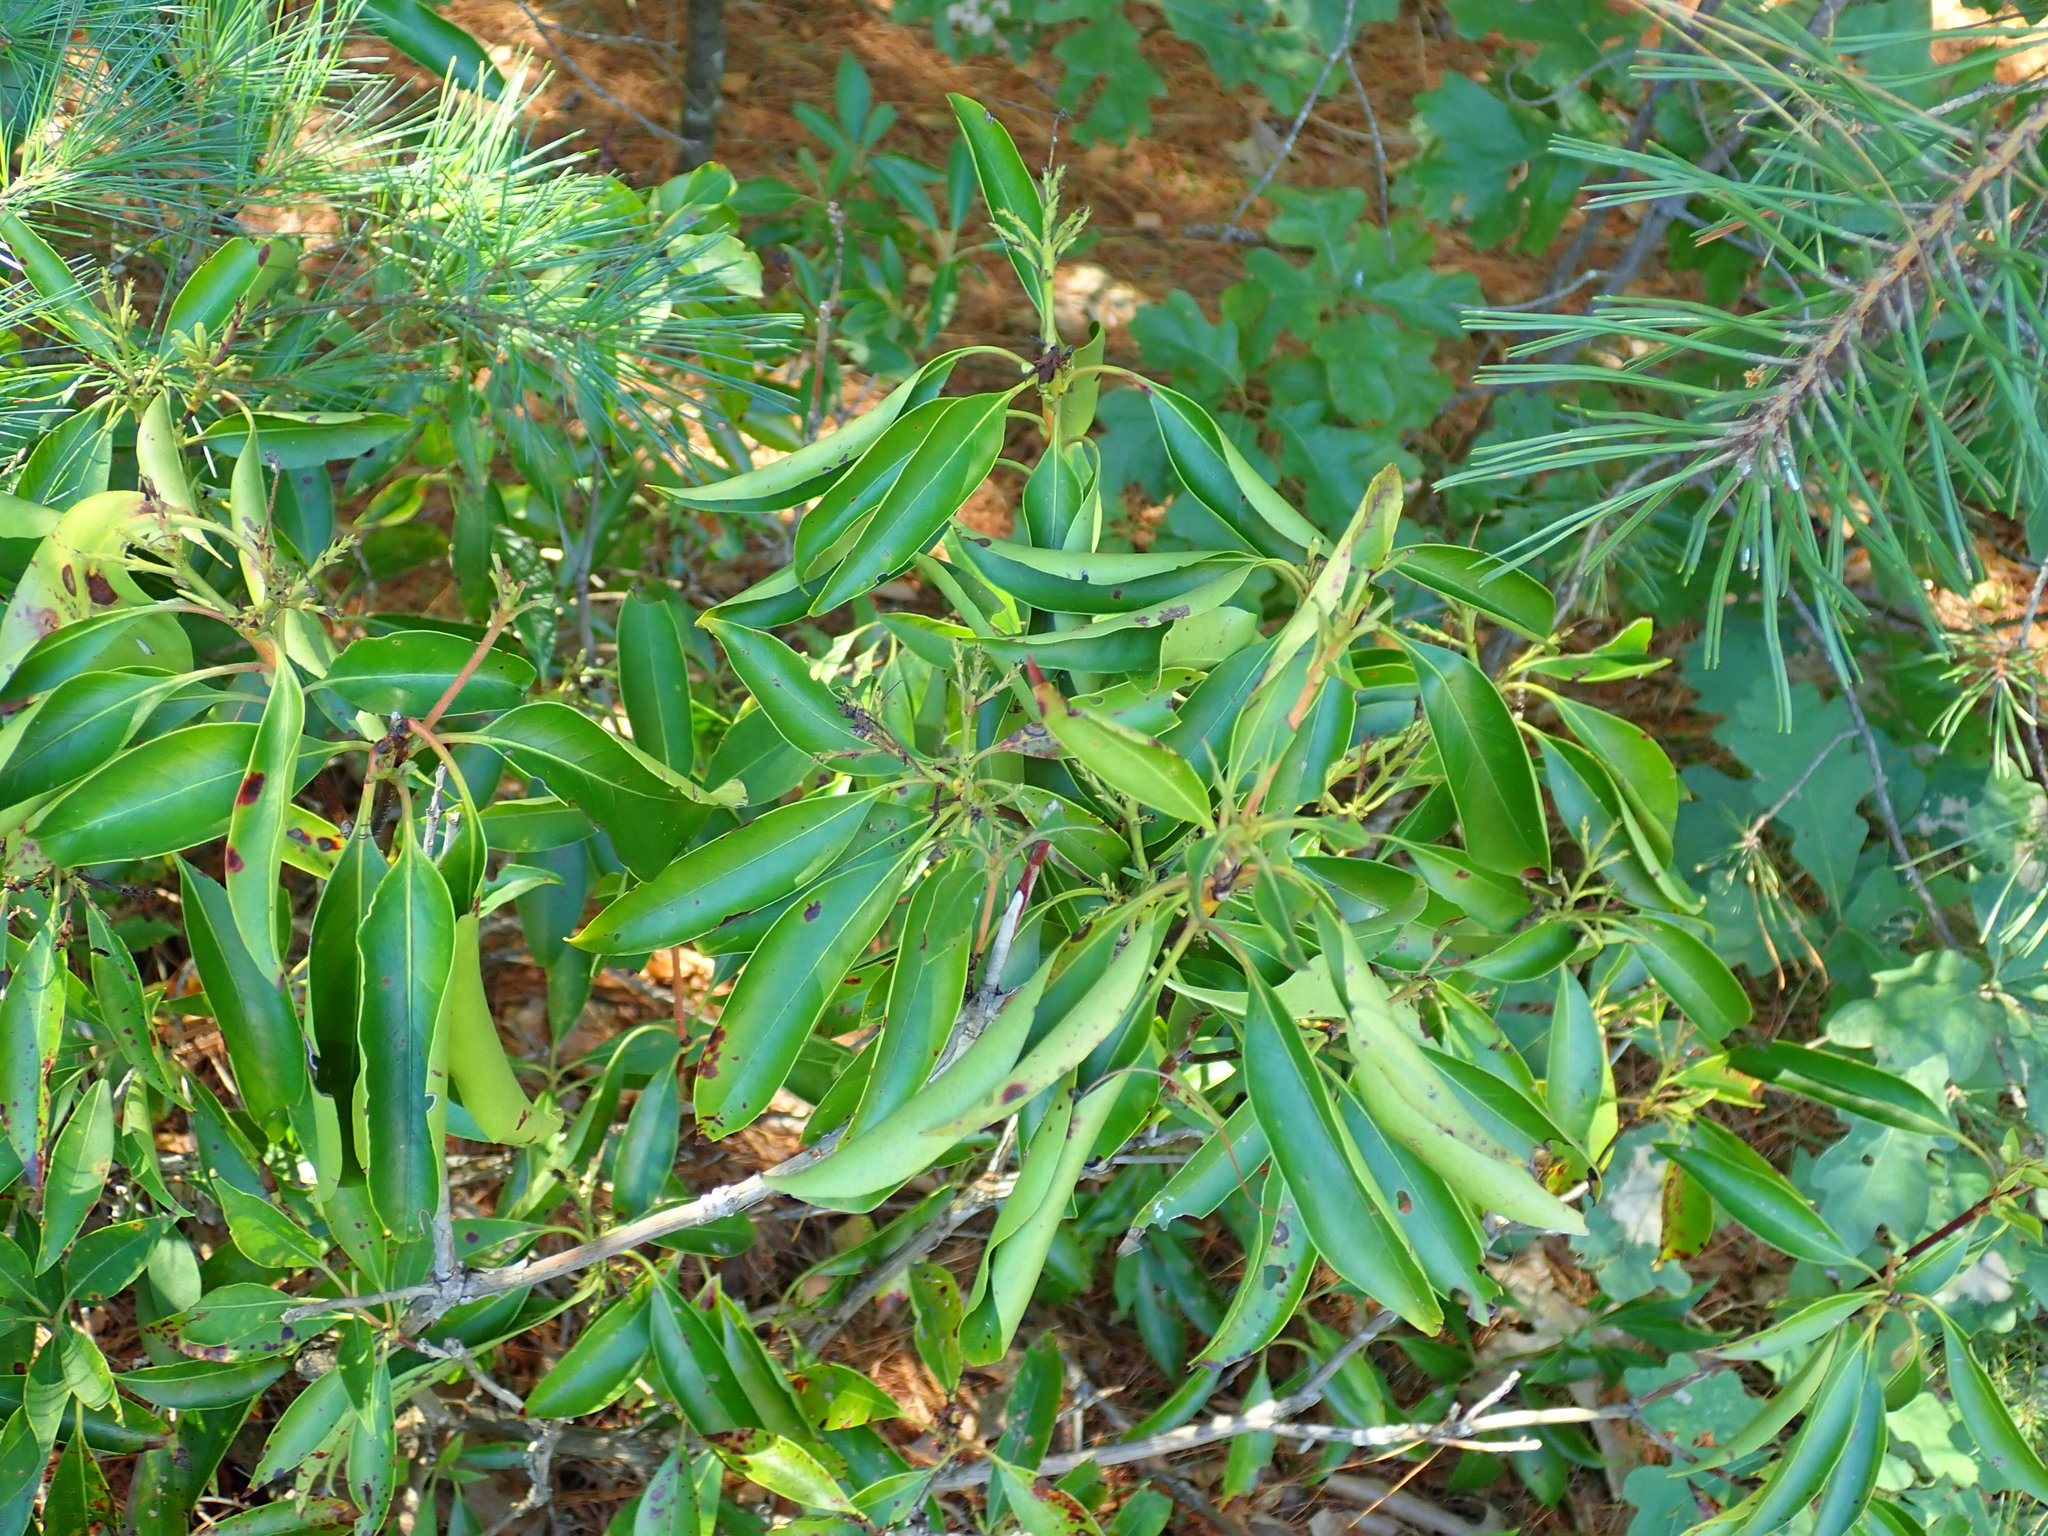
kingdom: Plantae
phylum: Tracheophyta
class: Magnoliopsida
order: Ericales
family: Ericaceae
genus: Kalmia
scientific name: Kalmia latifolia
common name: Mountain-laurel
